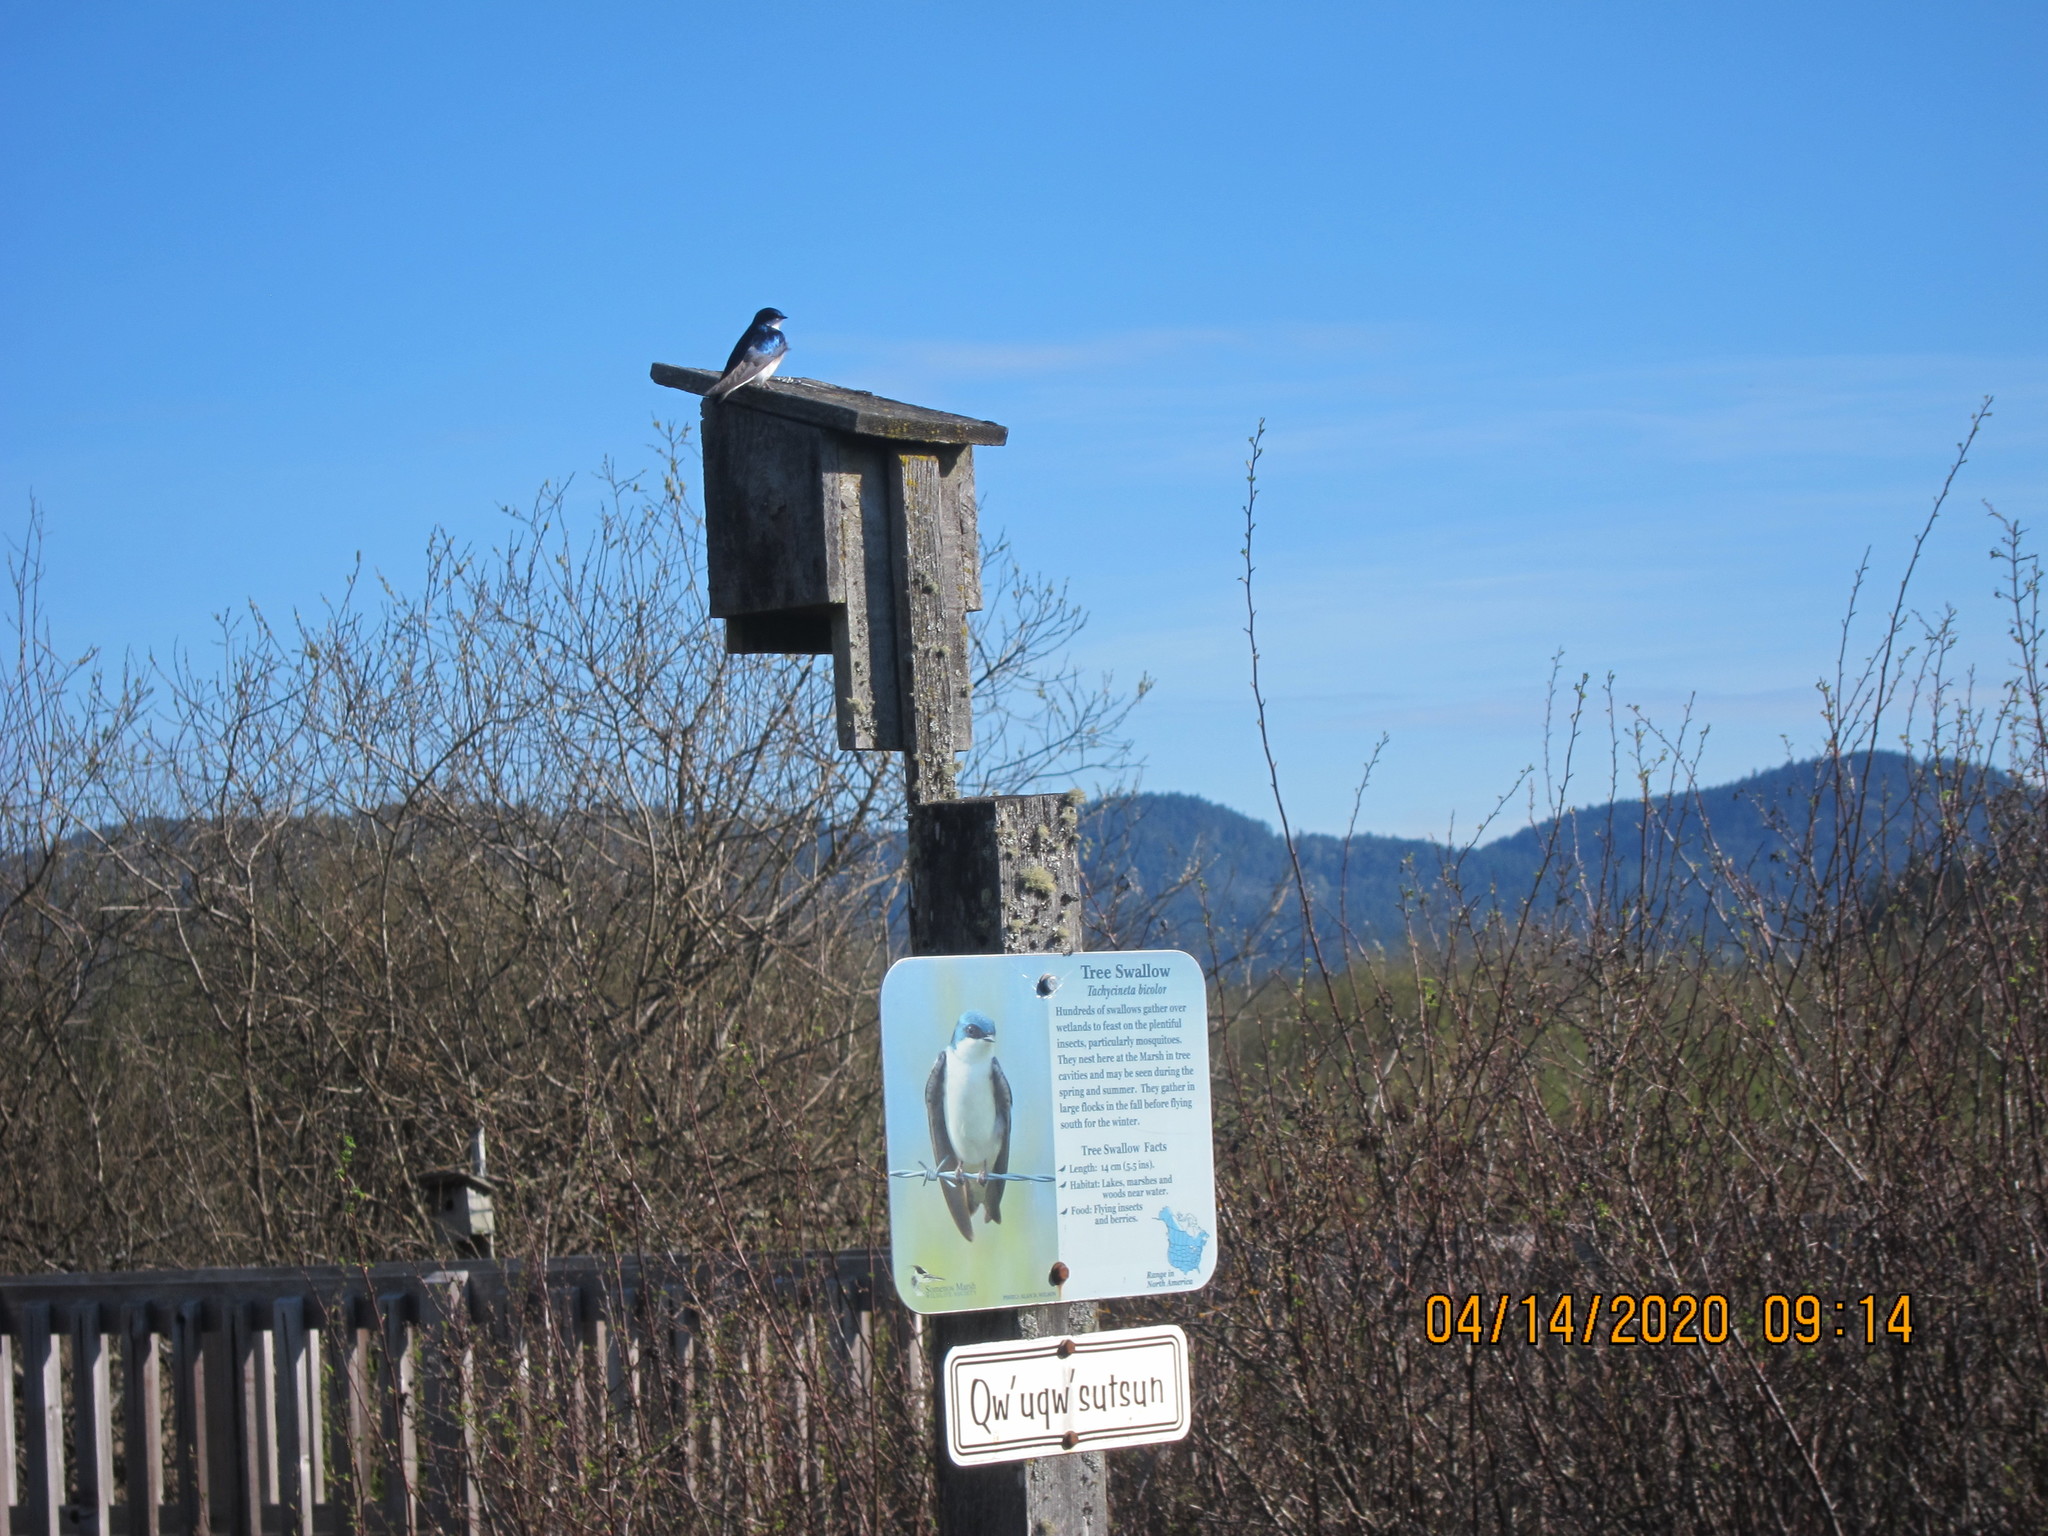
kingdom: Animalia
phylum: Chordata
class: Aves
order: Passeriformes
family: Hirundinidae
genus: Tachycineta
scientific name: Tachycineta bicolor
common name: Tree swallow
